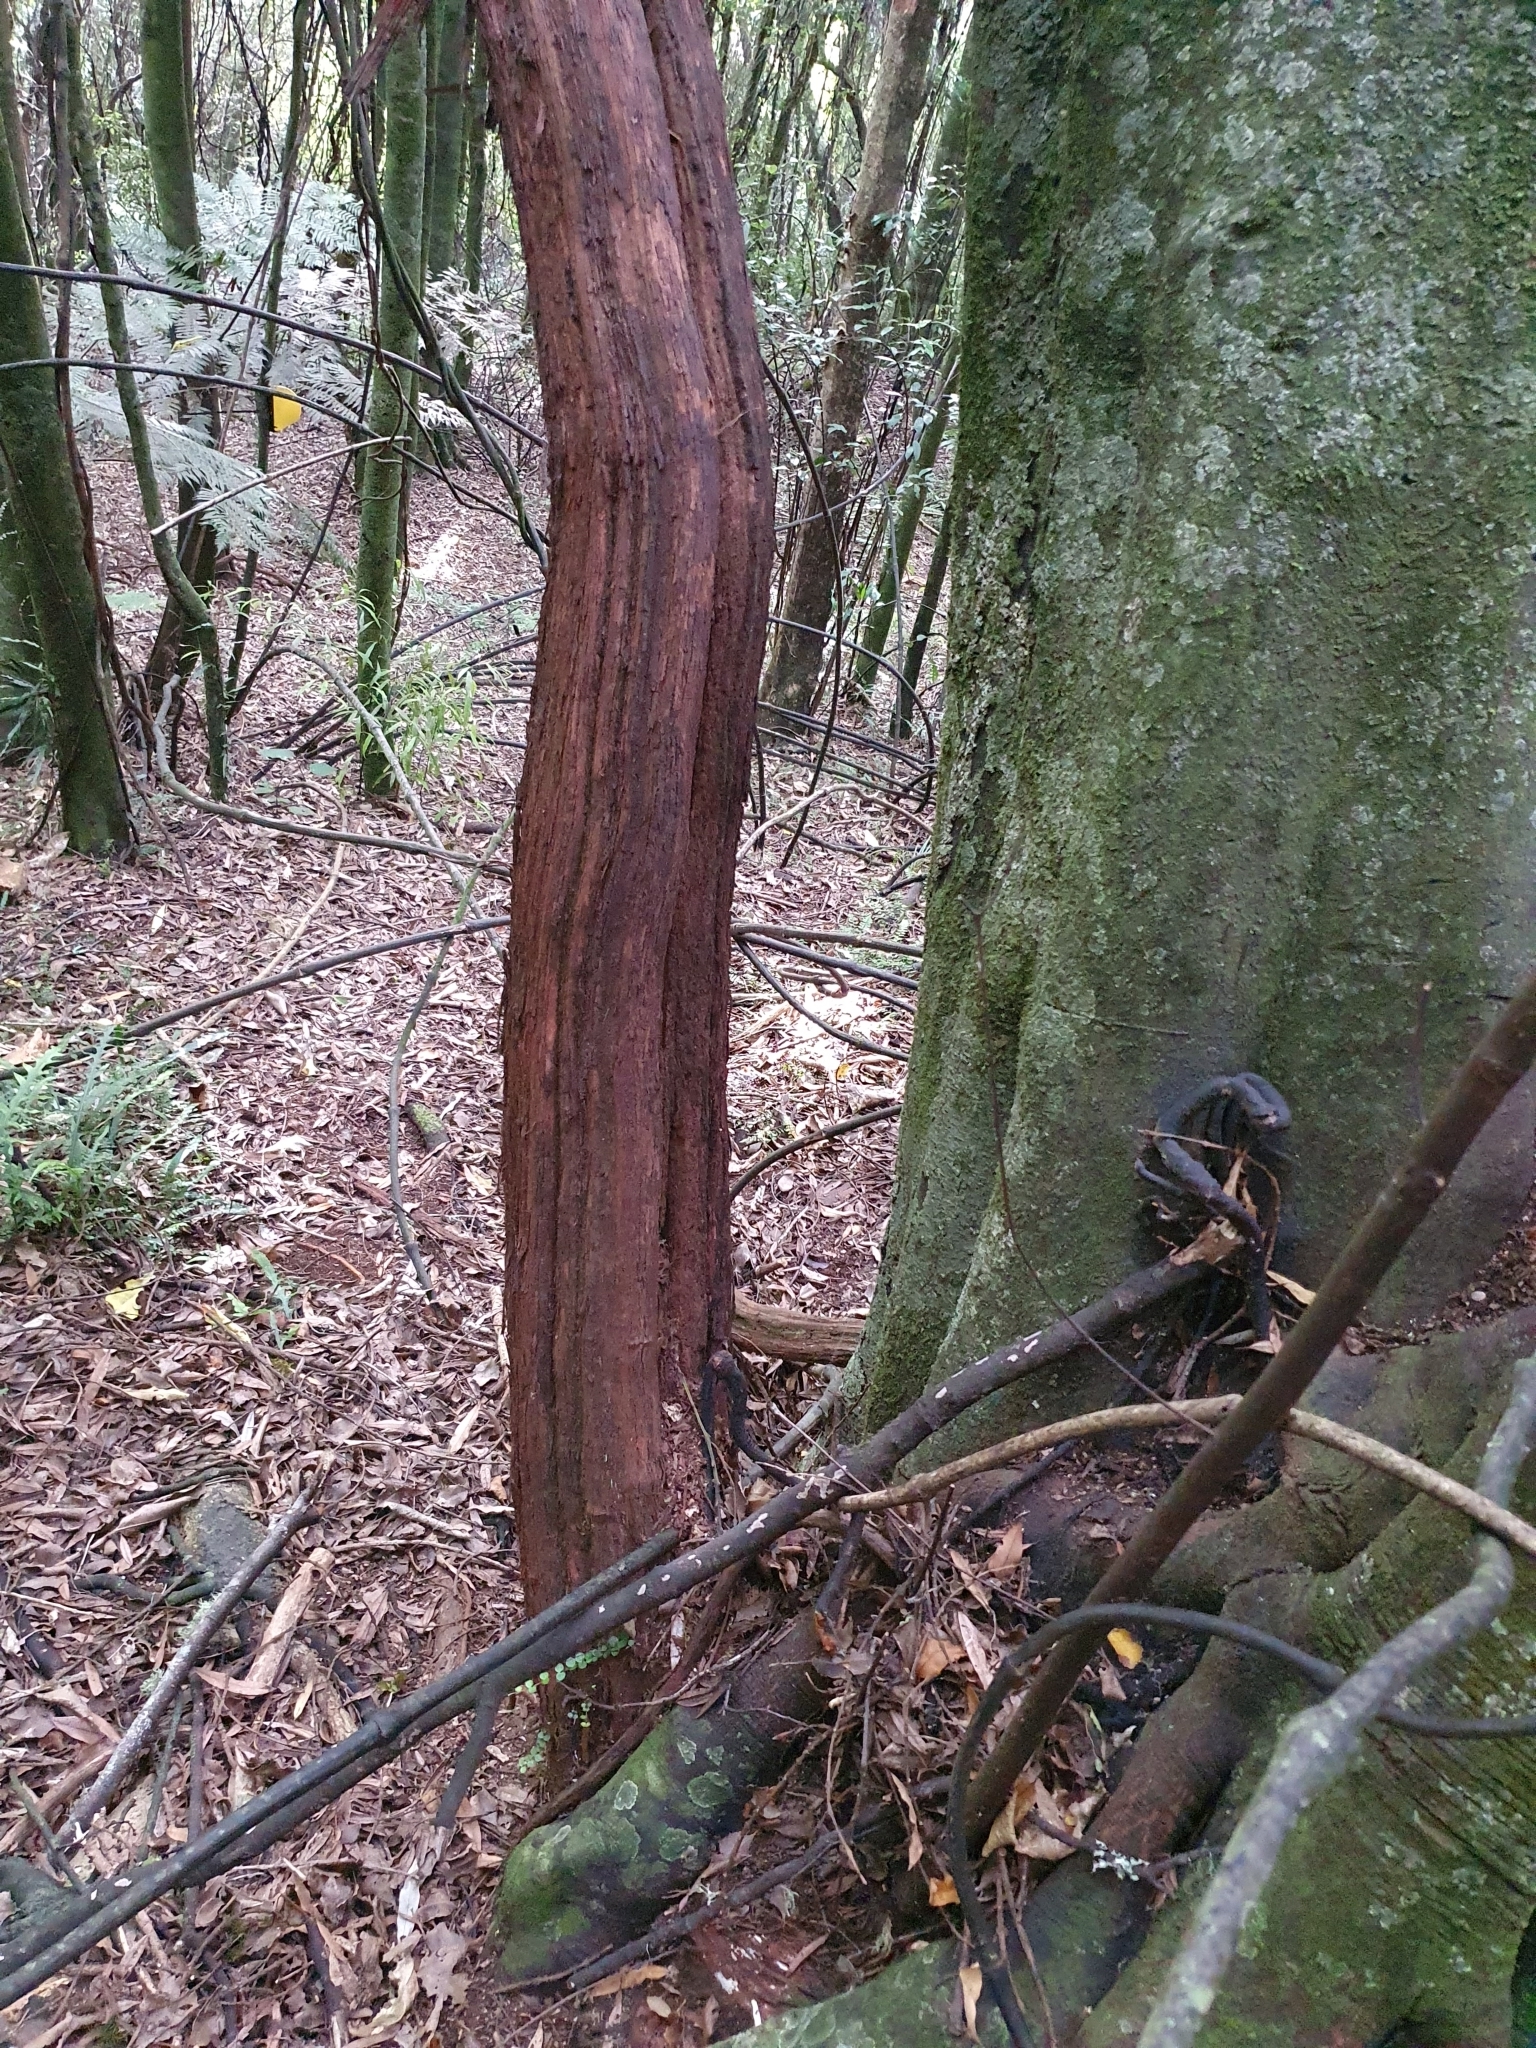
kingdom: Plantae
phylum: Tracheophyta
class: Magnoliopsida
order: Myrtales
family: Myrtaceae
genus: Metrosideros
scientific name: Metrosideros perforata
